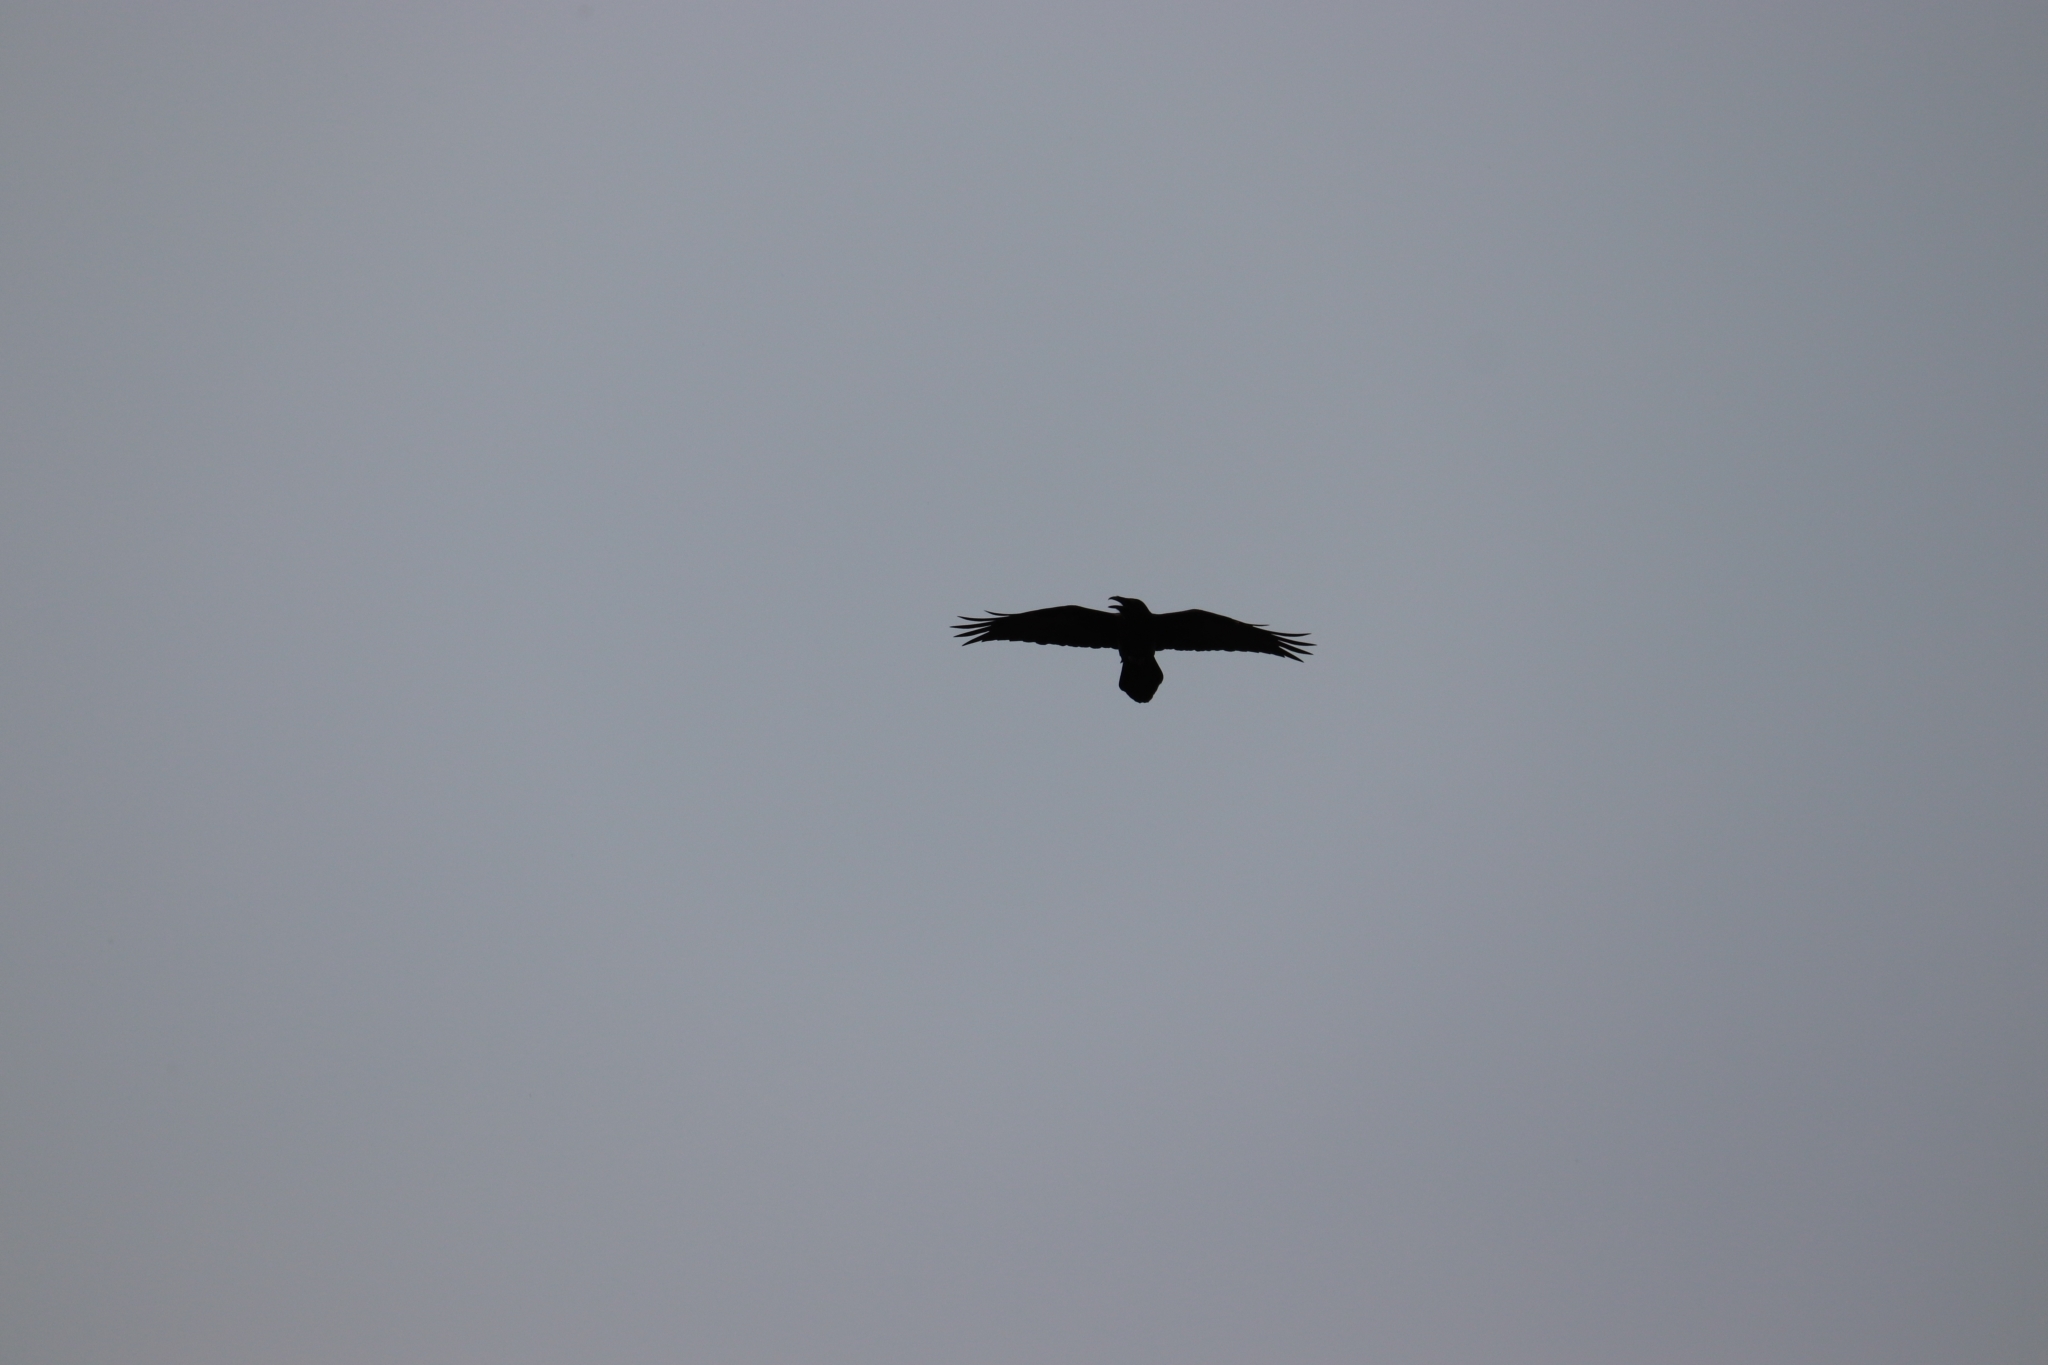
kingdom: Animalia
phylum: Chordata
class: Aves
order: Passeriformes
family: Corvidae
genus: Corvus
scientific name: Corvus corax
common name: Common raven
